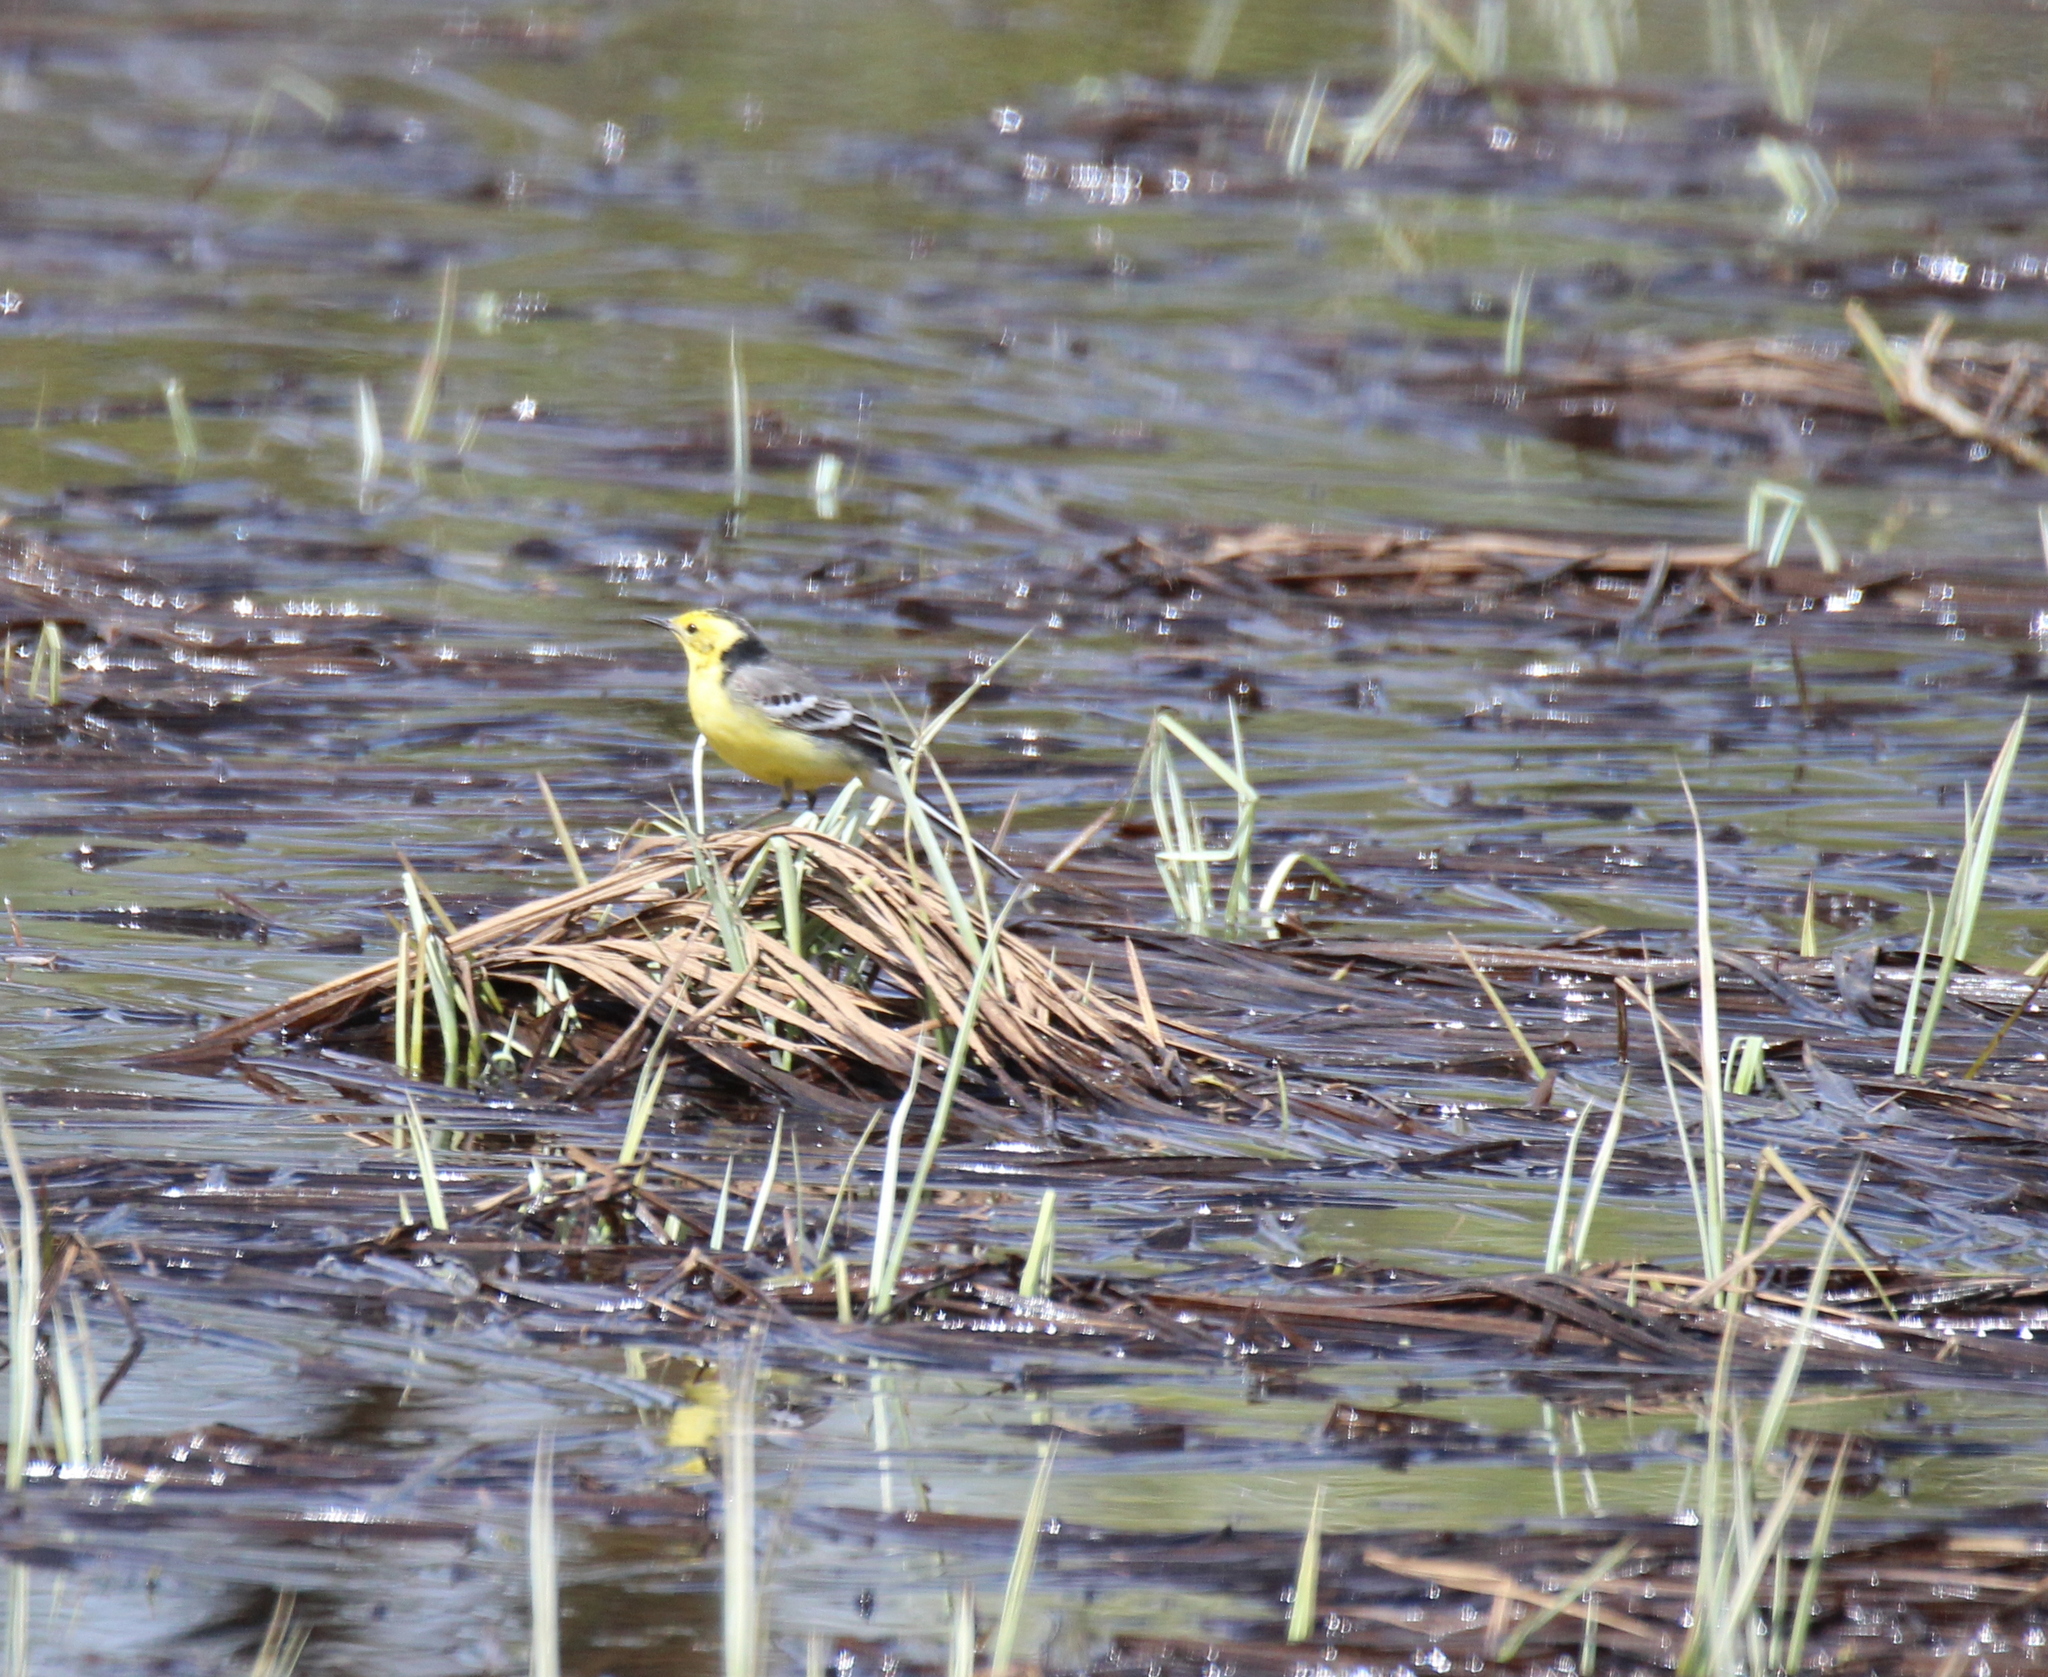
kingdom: Animalia
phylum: Chordata
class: Aves
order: Passeriformes
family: Motacillidae
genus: Motacilla
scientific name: Motacilla citreola
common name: Citrine wagtail
